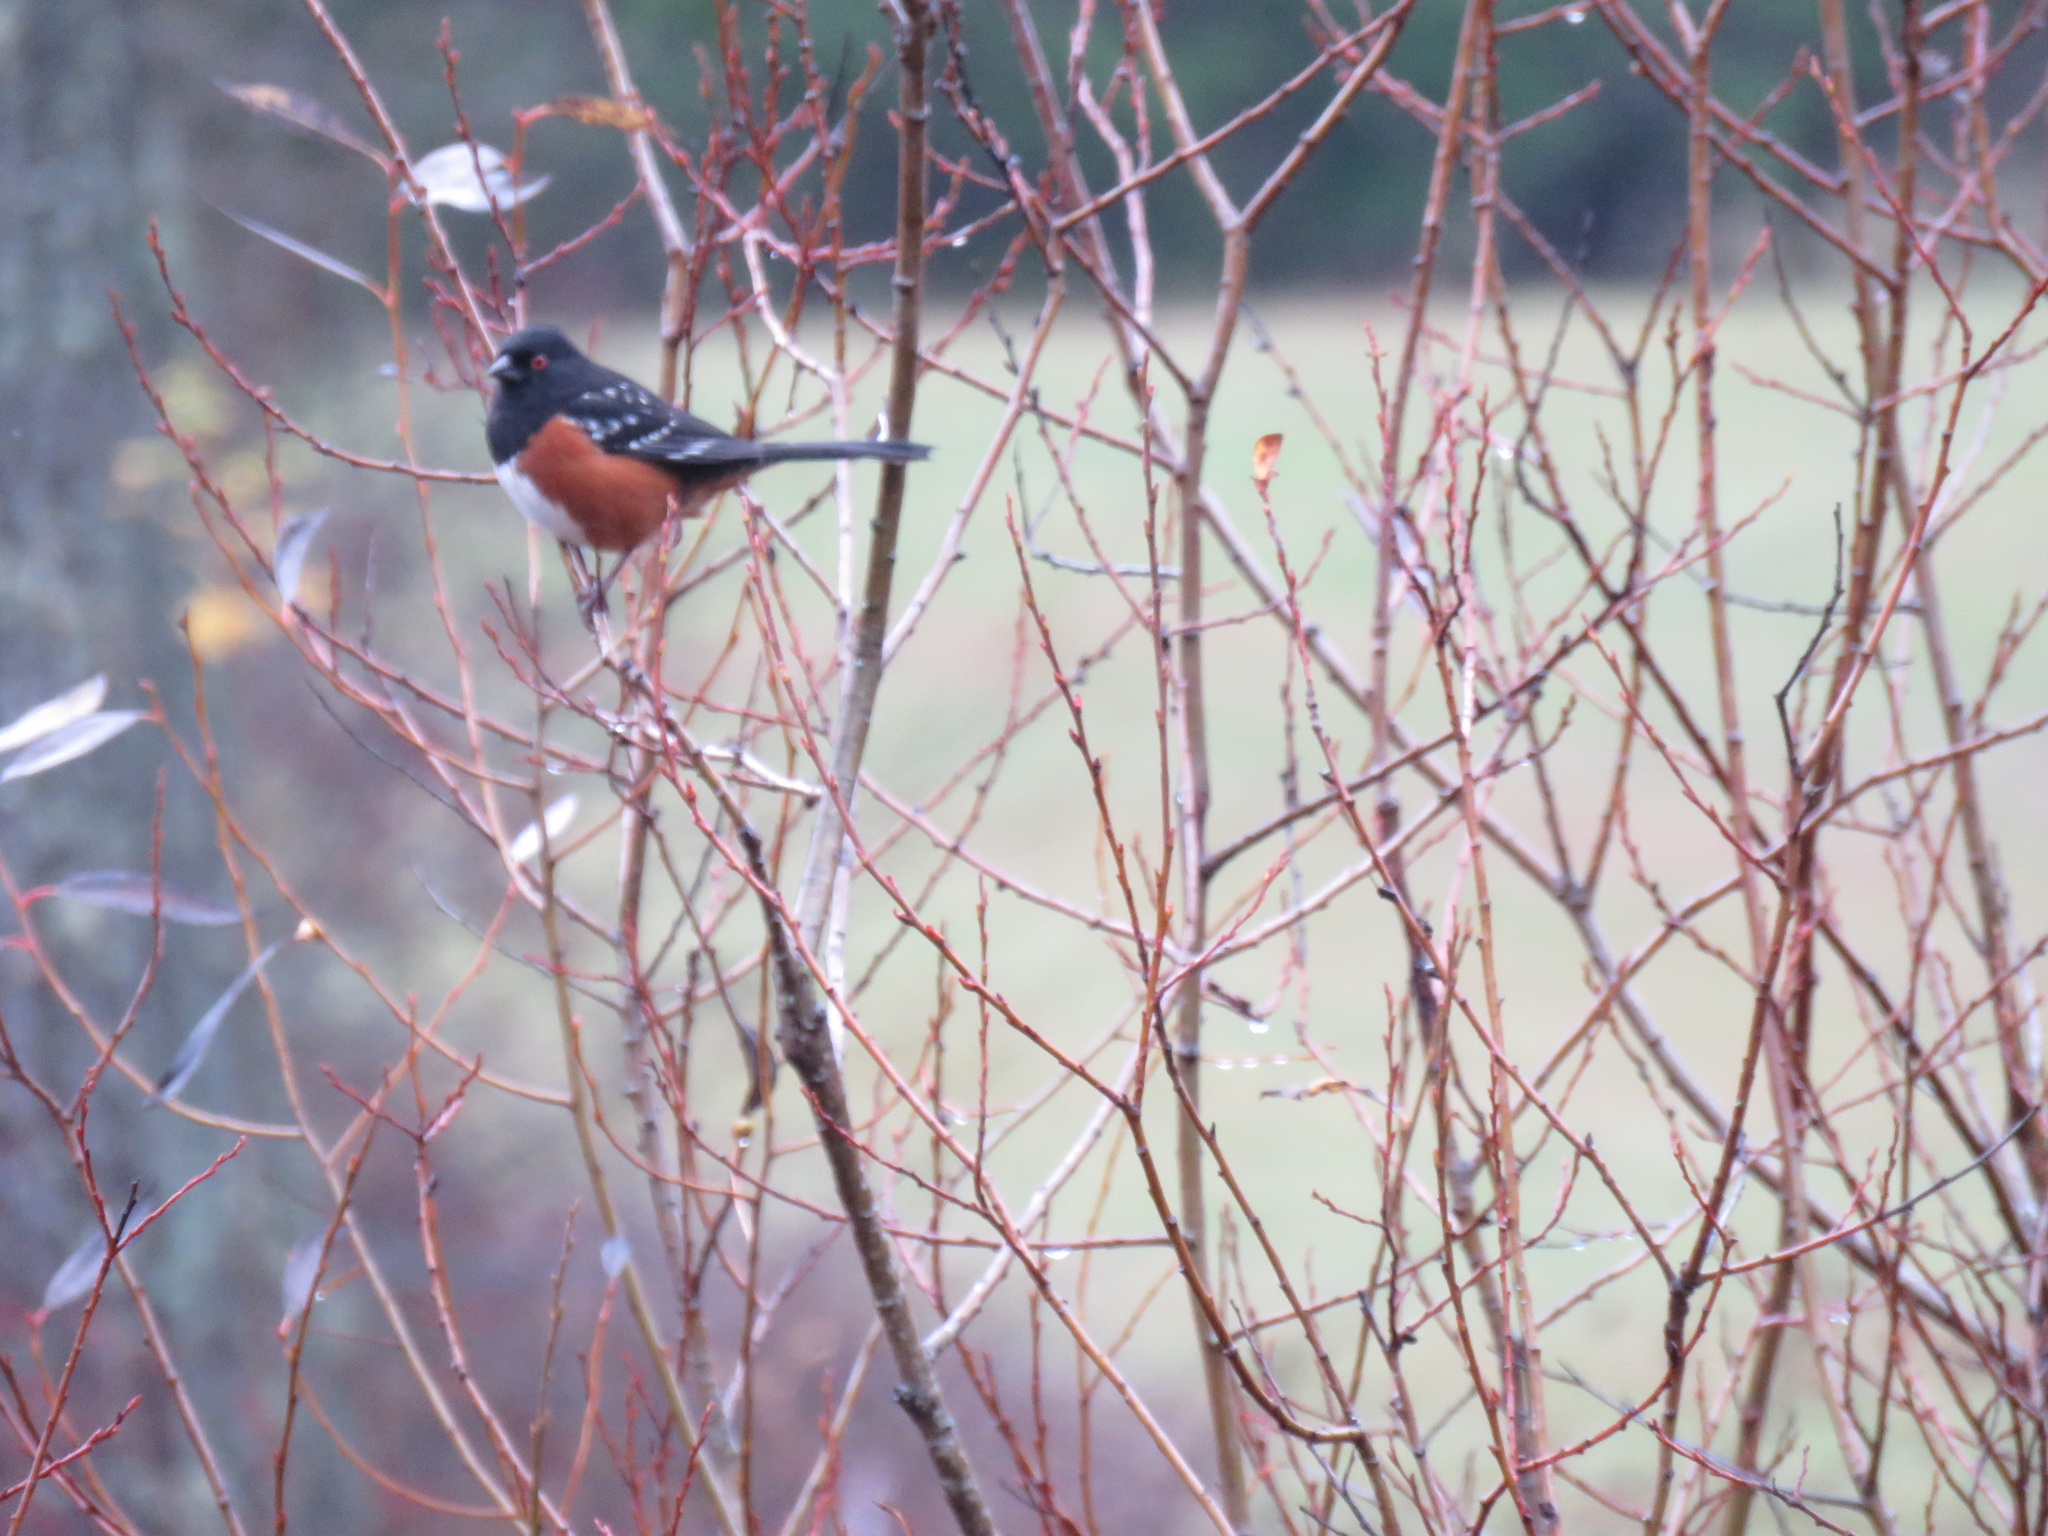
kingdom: Animalia
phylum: Chordata
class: Aves
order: Passeriformes
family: Passerellidae
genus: Pipilo
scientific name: Pipilo maculatus
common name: Spotted towhee
